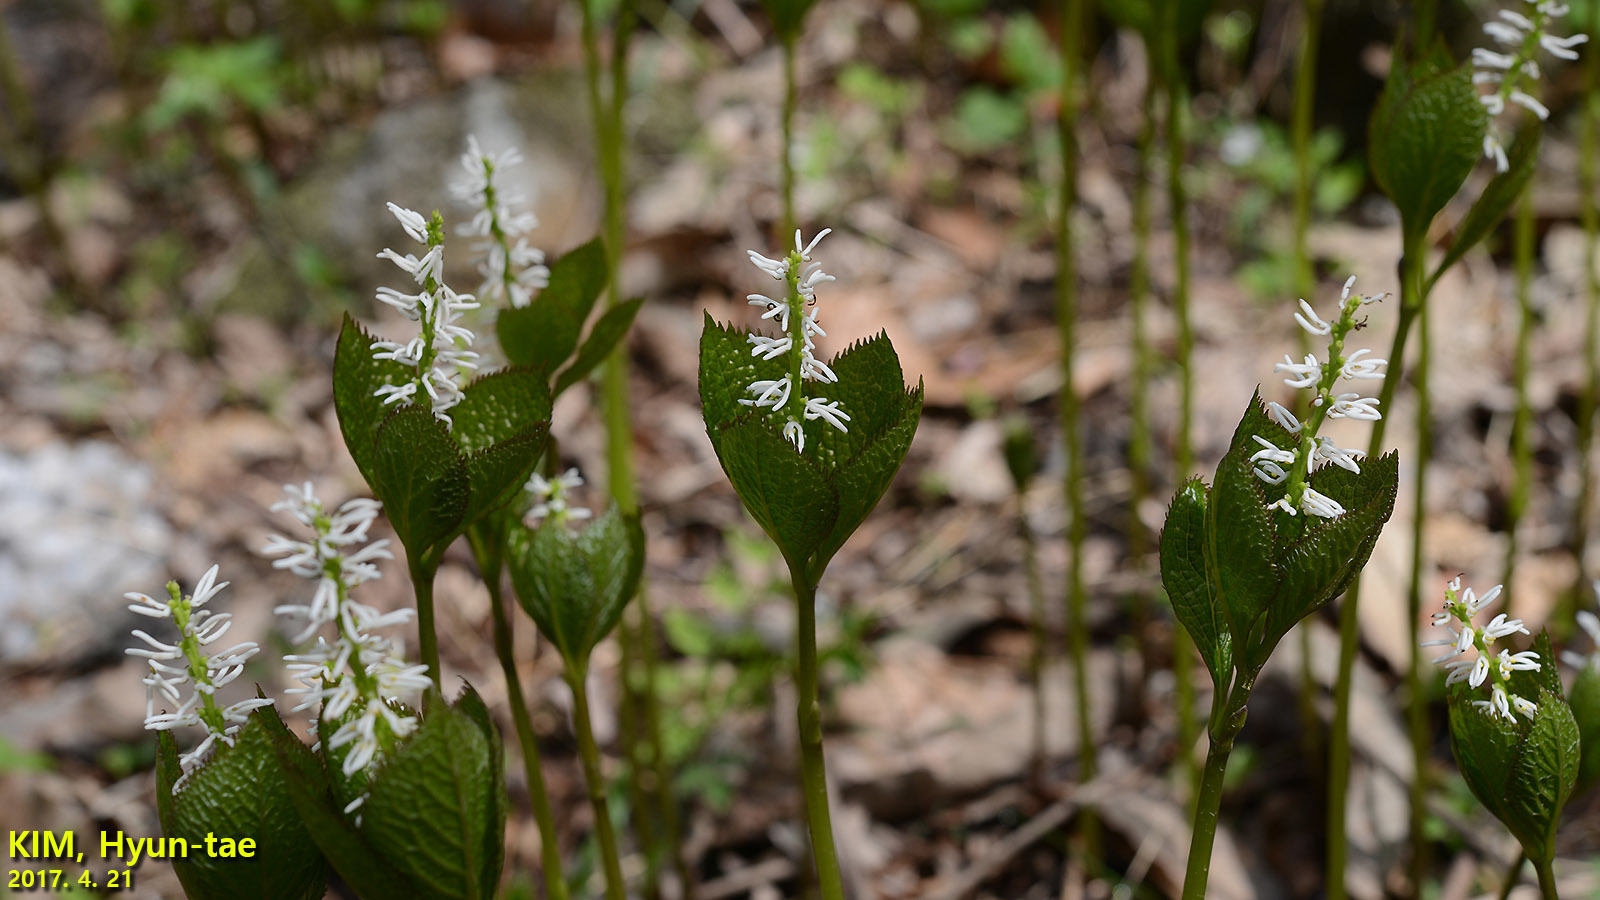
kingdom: Plantae
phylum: Tracheophyta
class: Magnoliopsida
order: Chloranthales
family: Chloranthaceae
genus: Chloranthus
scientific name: Chloranthus quadrifolius
